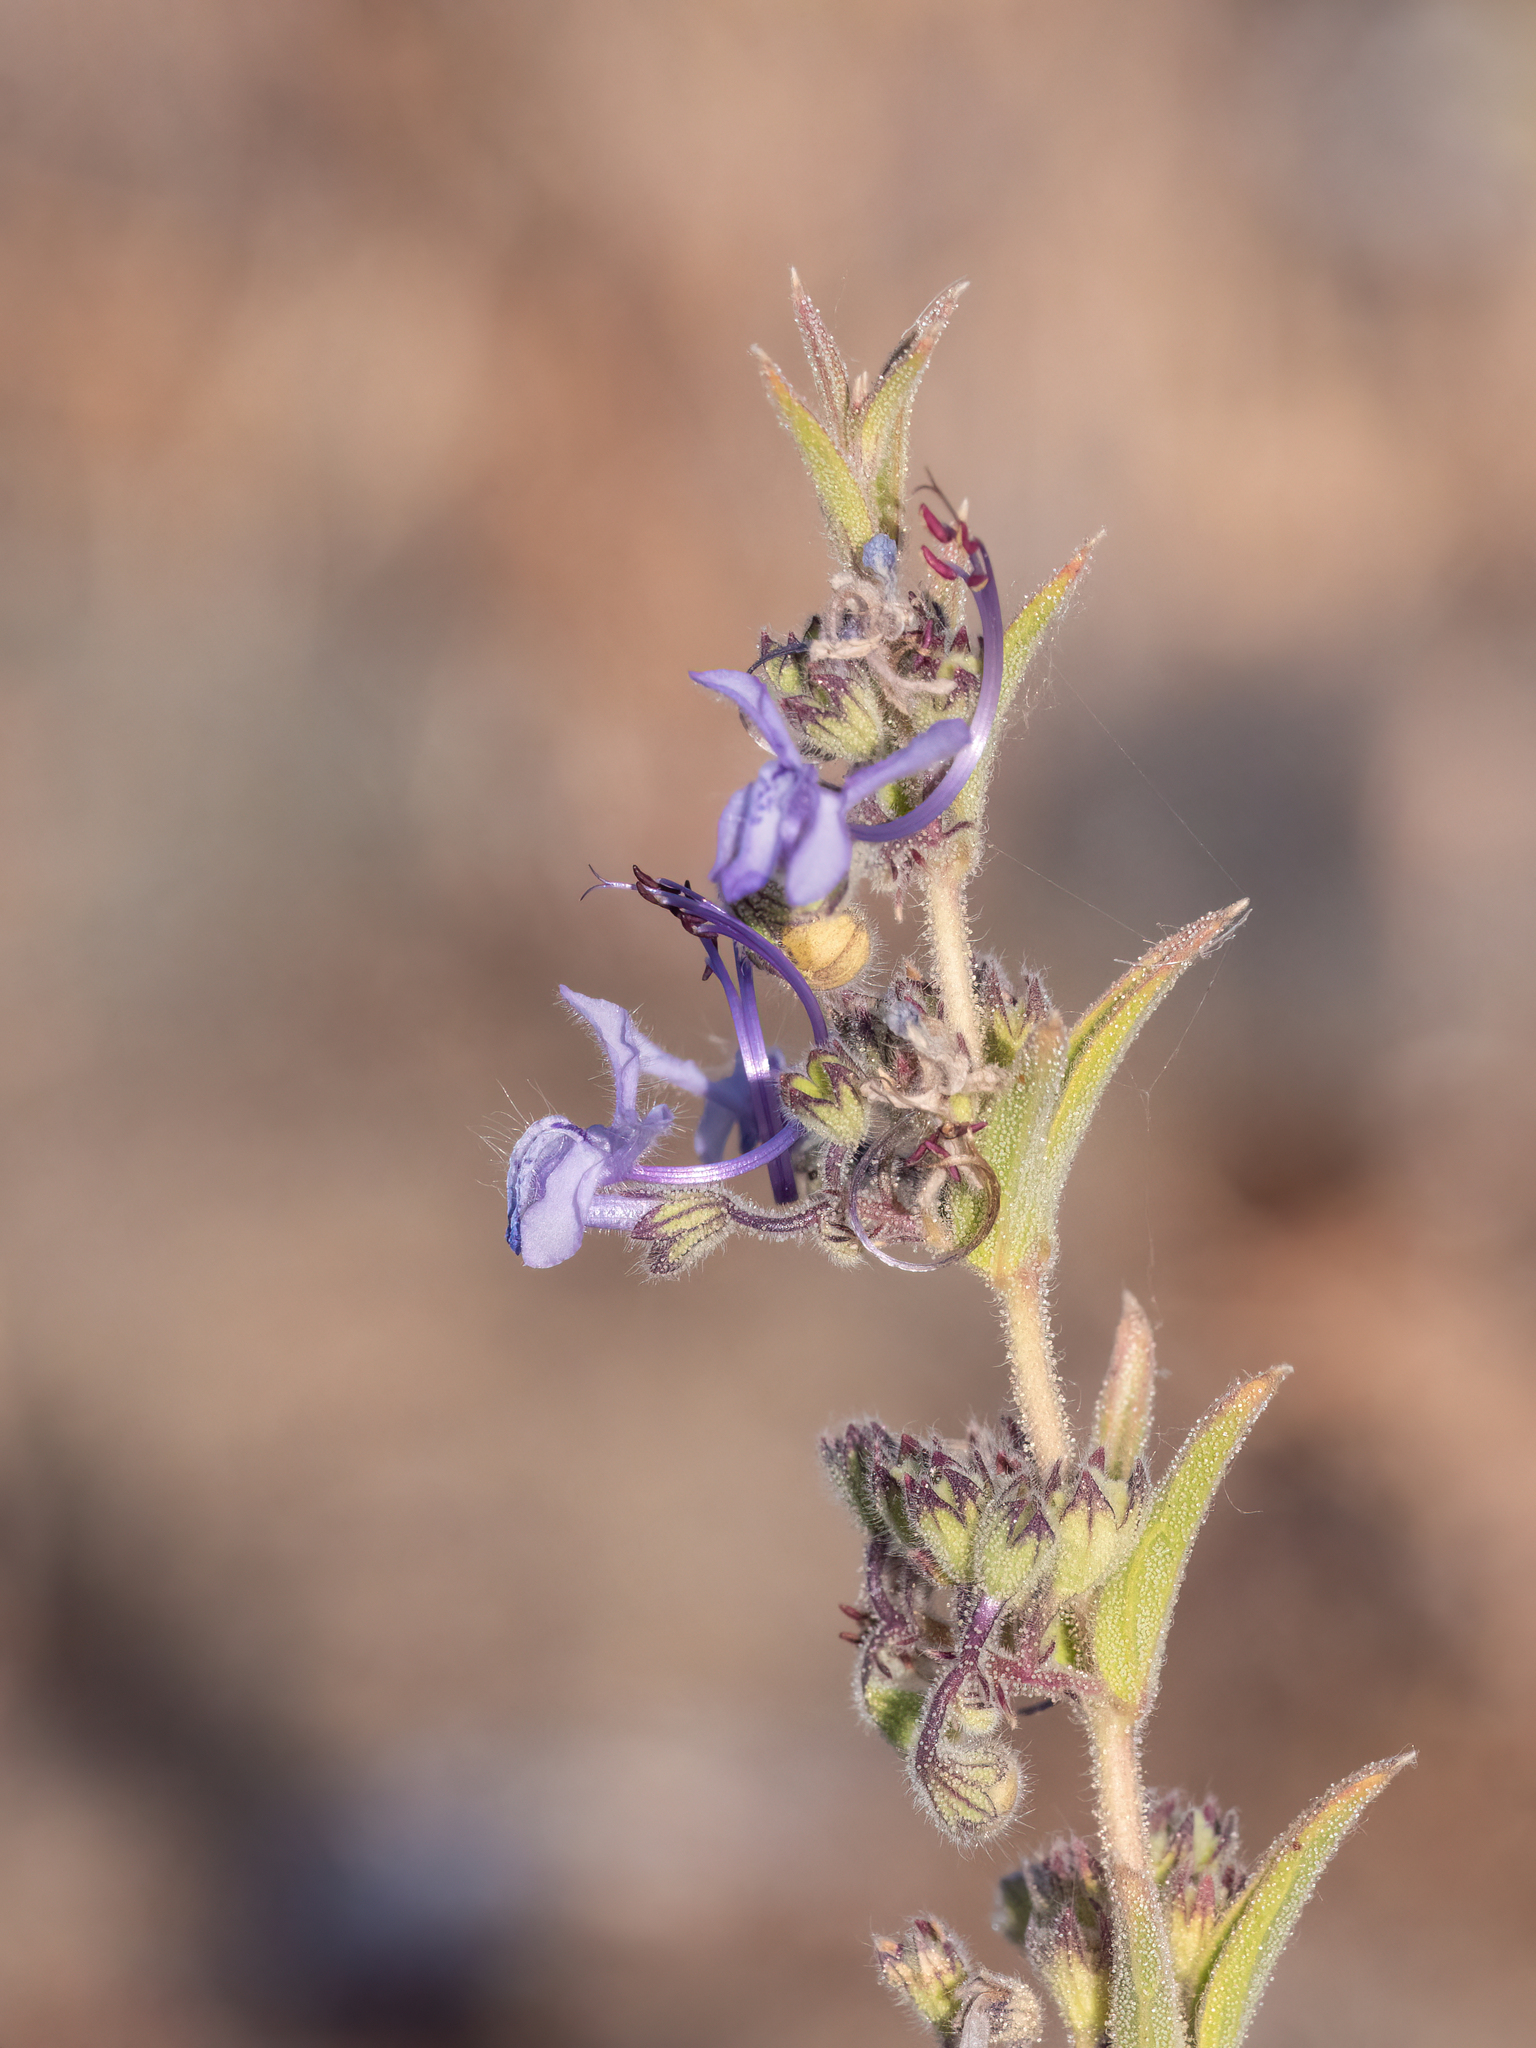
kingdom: Plantae
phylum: Tracheophyta
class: Magnoliopsida
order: Lamiales
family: Lamiaceae
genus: Trichostema
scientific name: Trichostema lanceolatum
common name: Vinegar-weed
